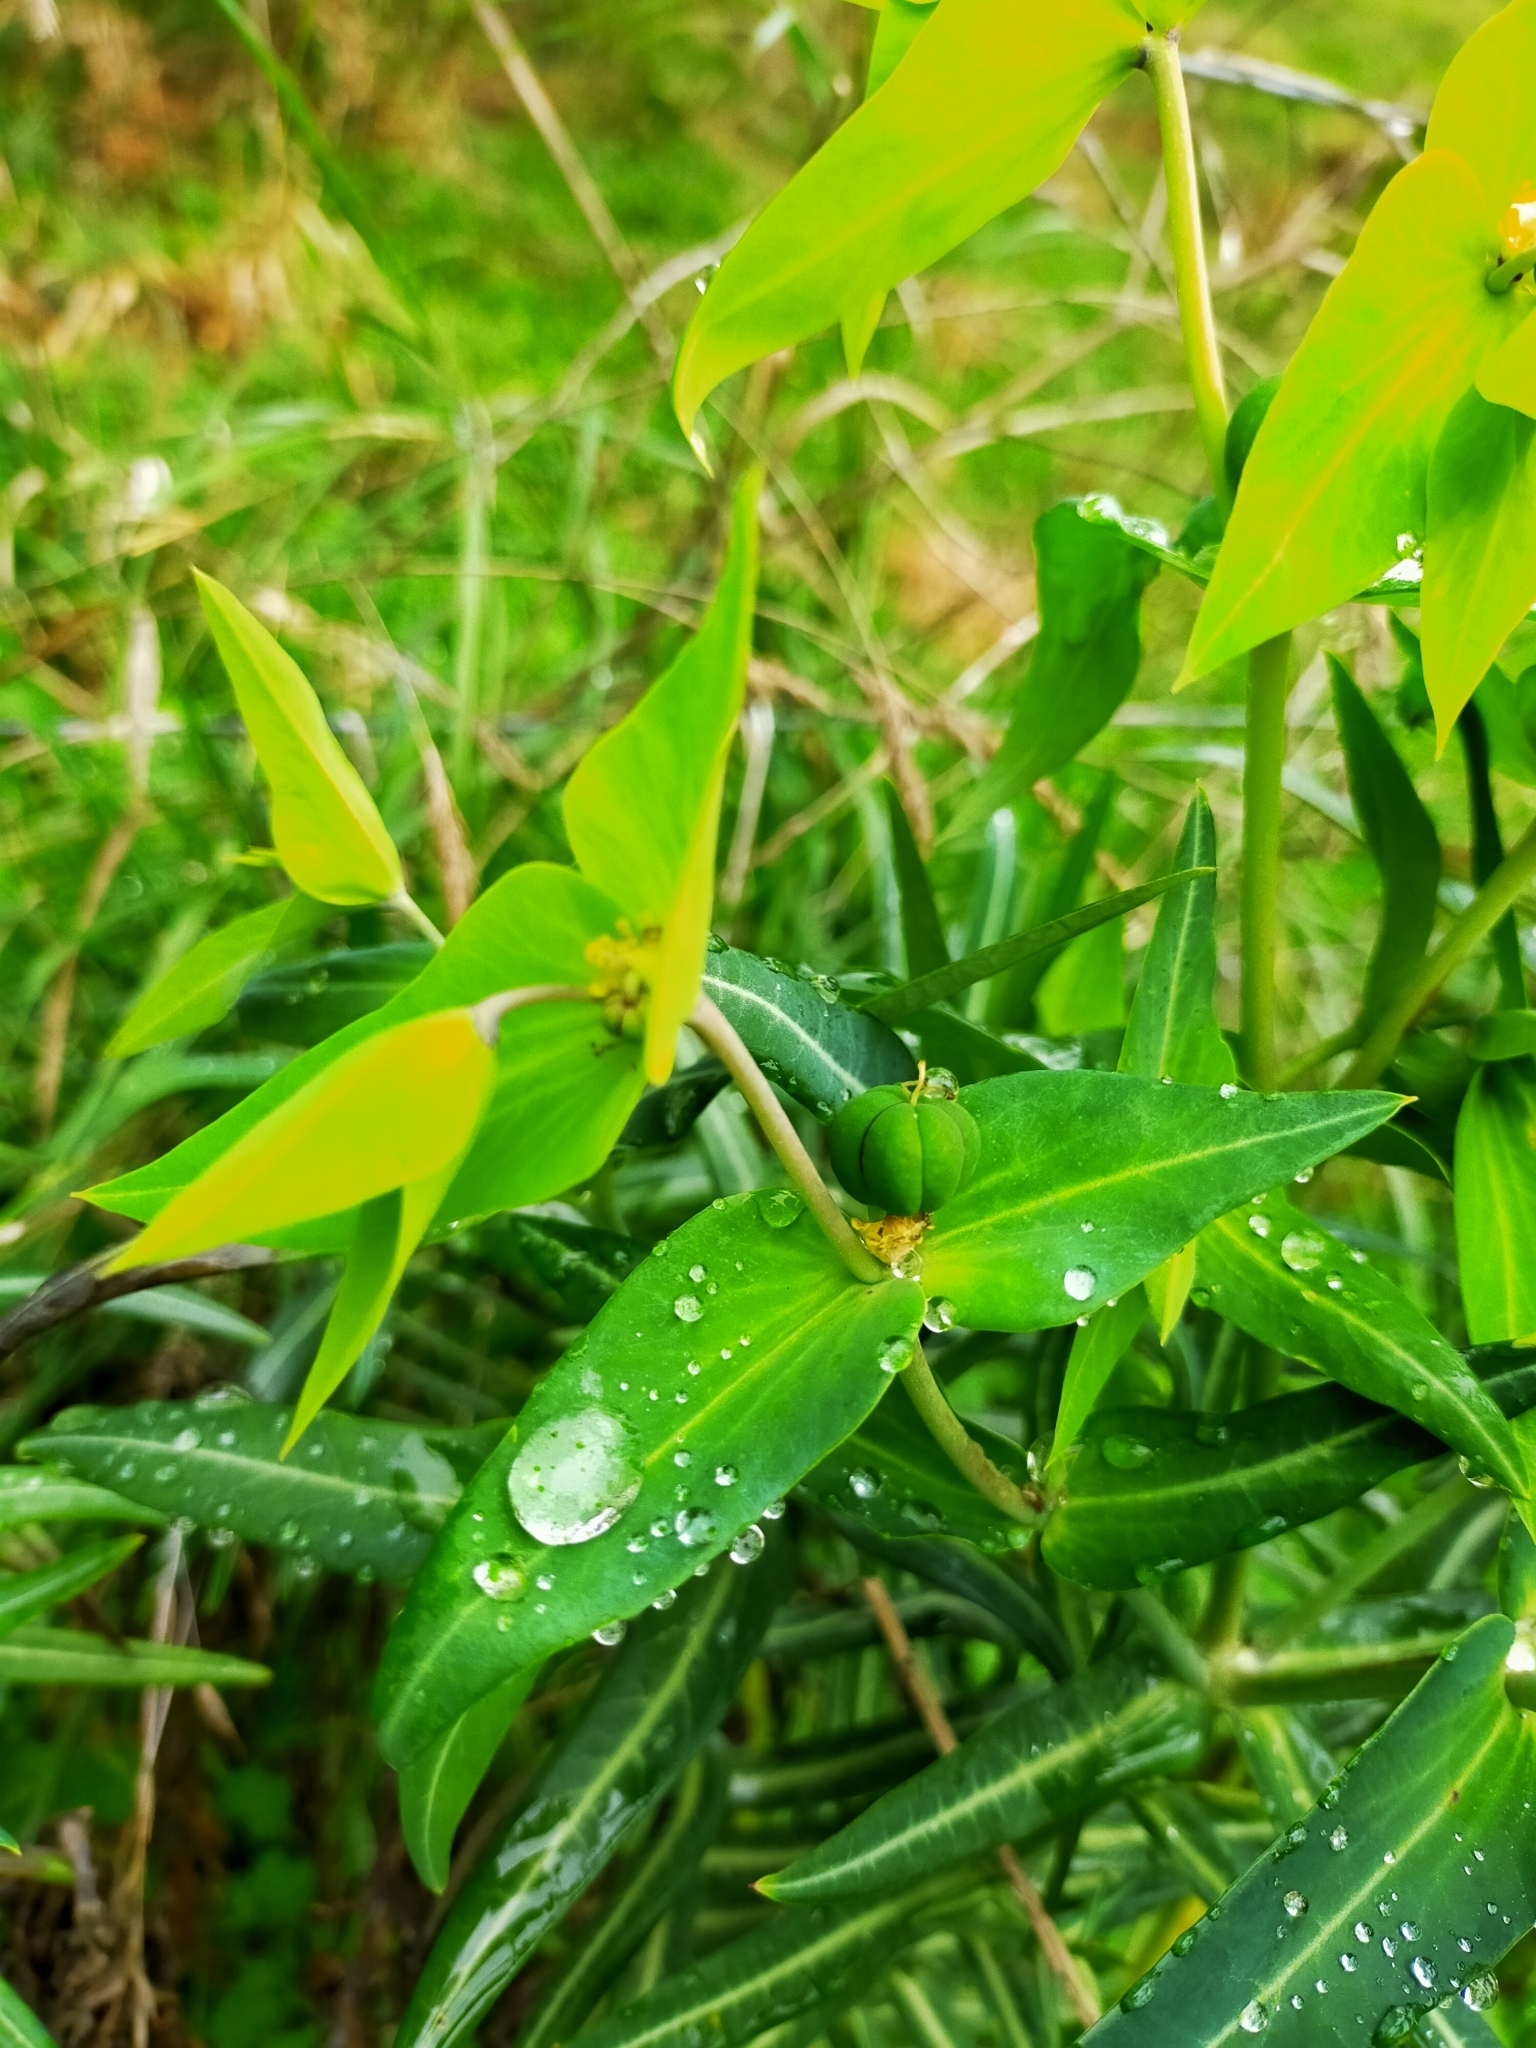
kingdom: Plantae
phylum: Tracheophyta
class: Magnoliopsida
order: Malpighiales
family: Euphorbiaceae
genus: Euphorbia
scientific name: Euphorbia lathyris
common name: Caper spurge
